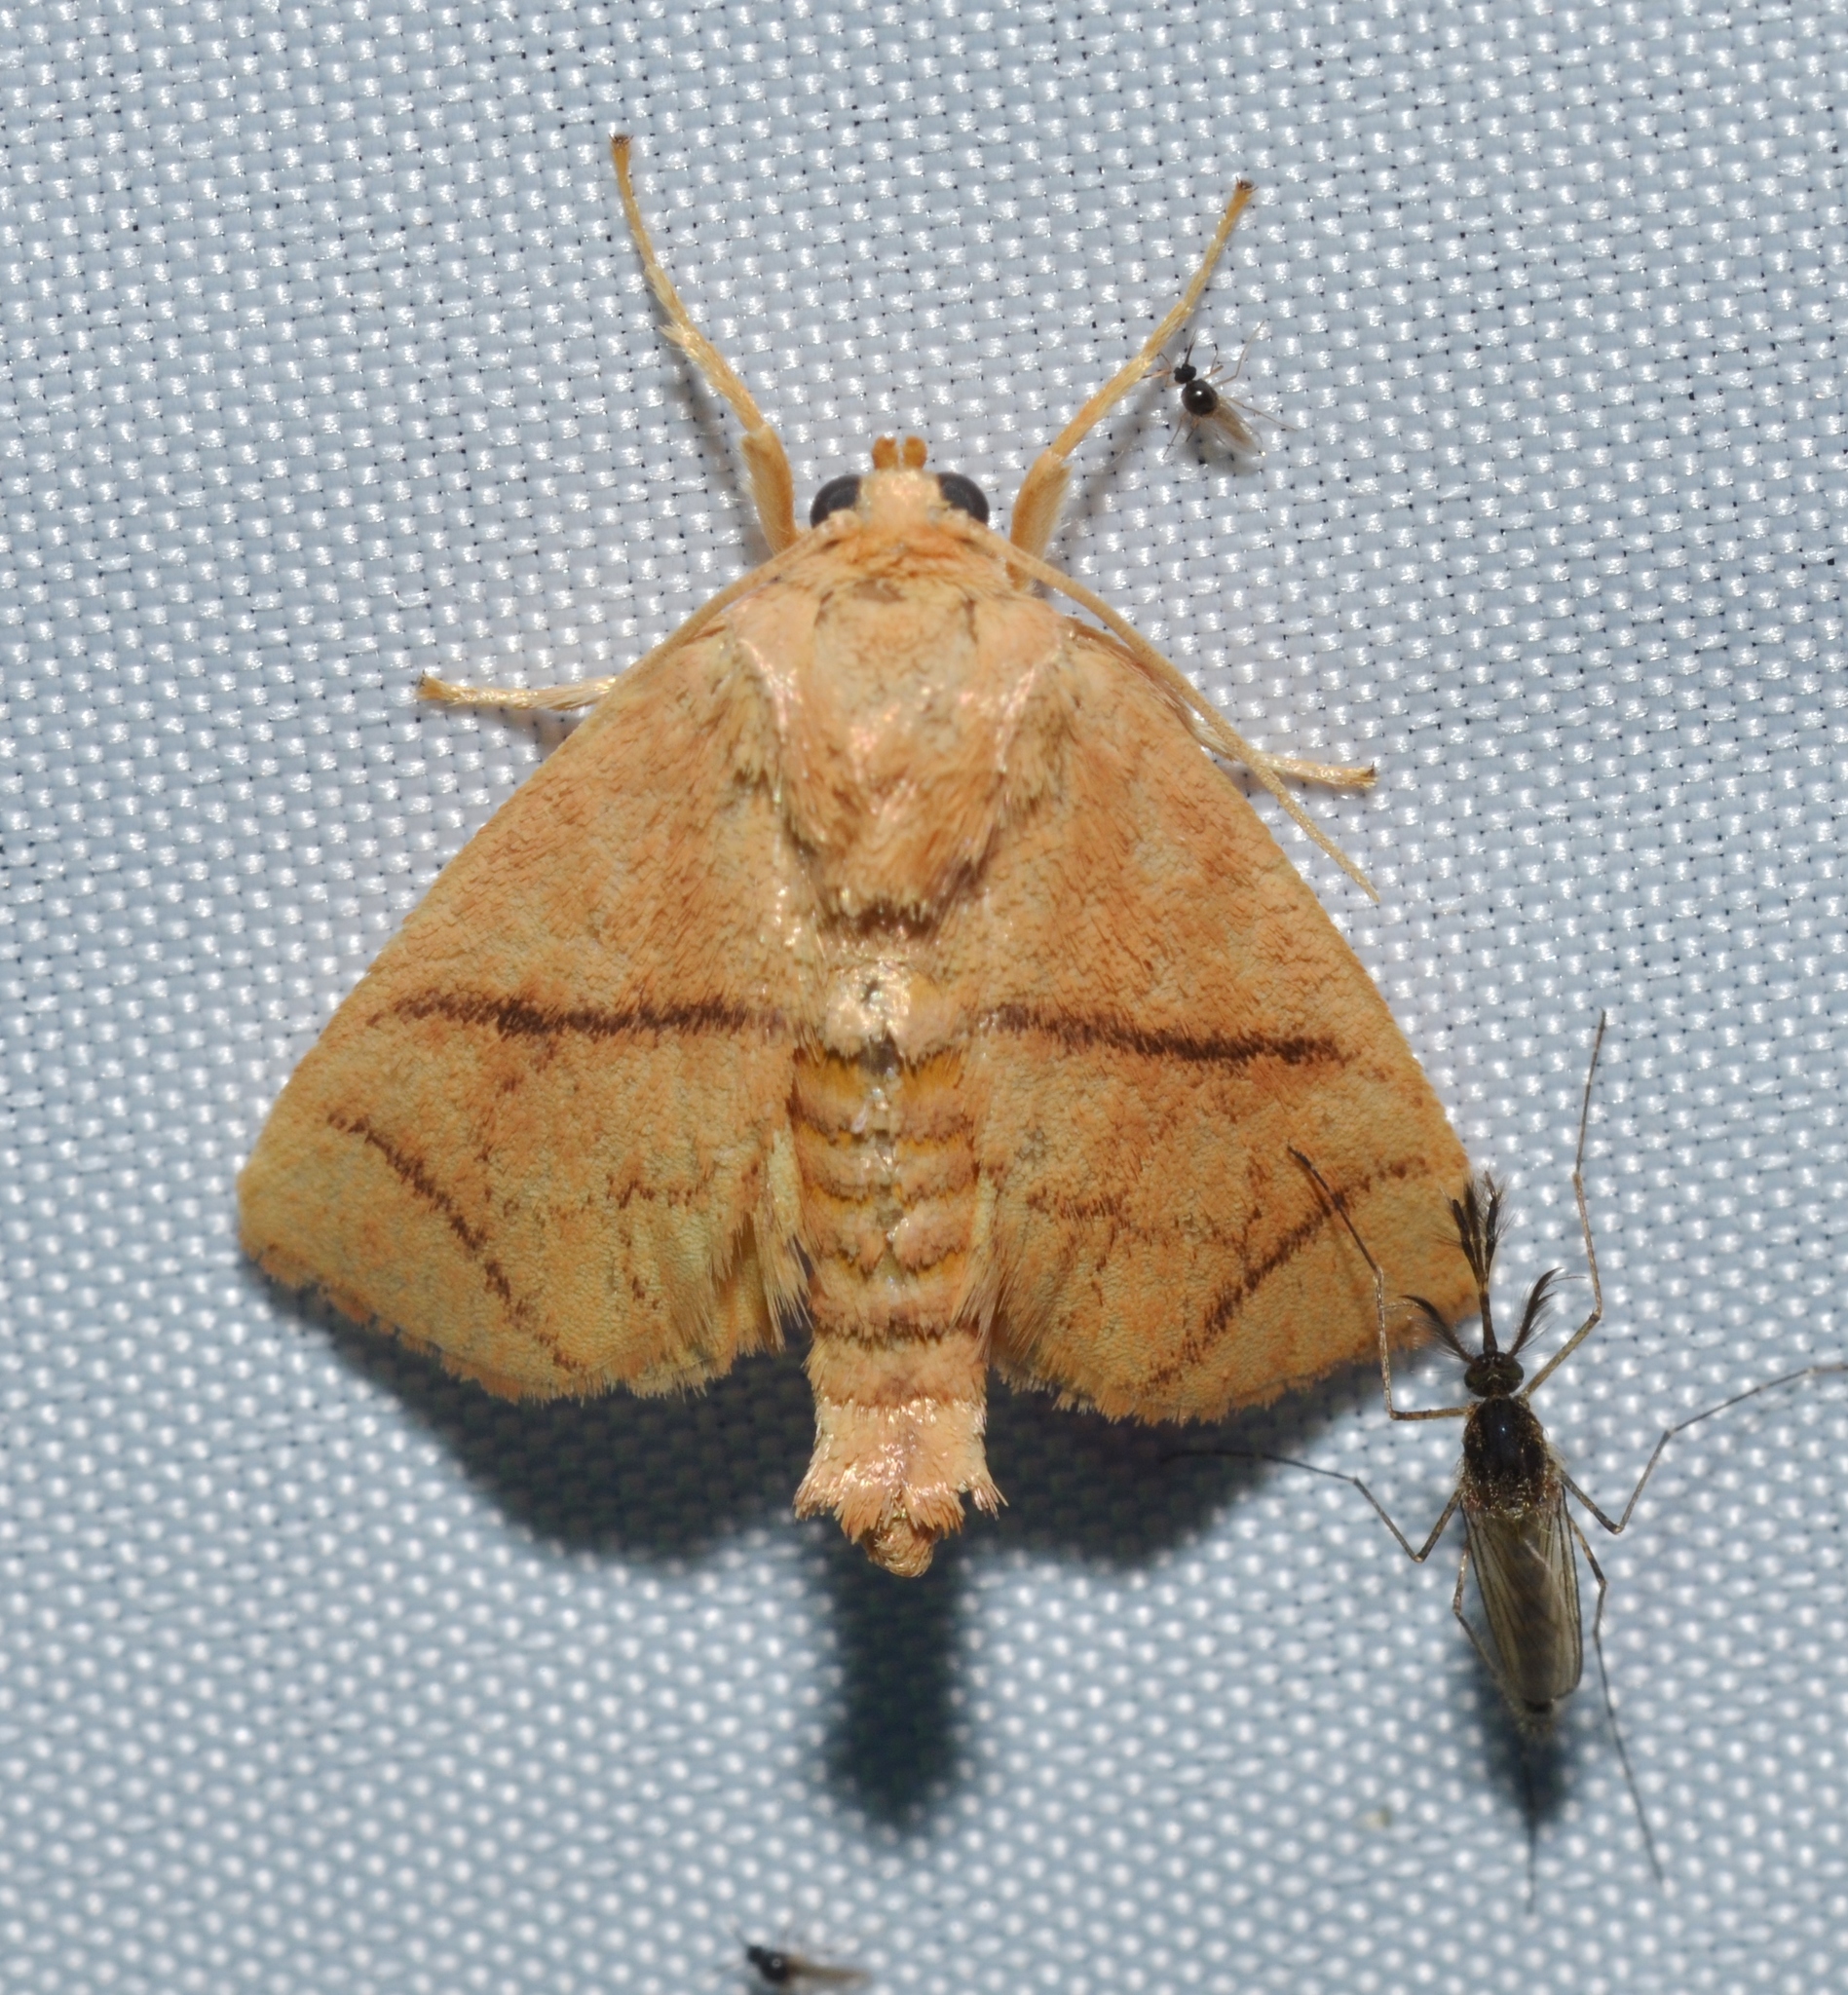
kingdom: Animalia
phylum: Arthropoda
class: Insecta
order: Lepidoptera
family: Limacodidae
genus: Apoda
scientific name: Apoda y-inversa
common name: Yellow-collared slug moth
